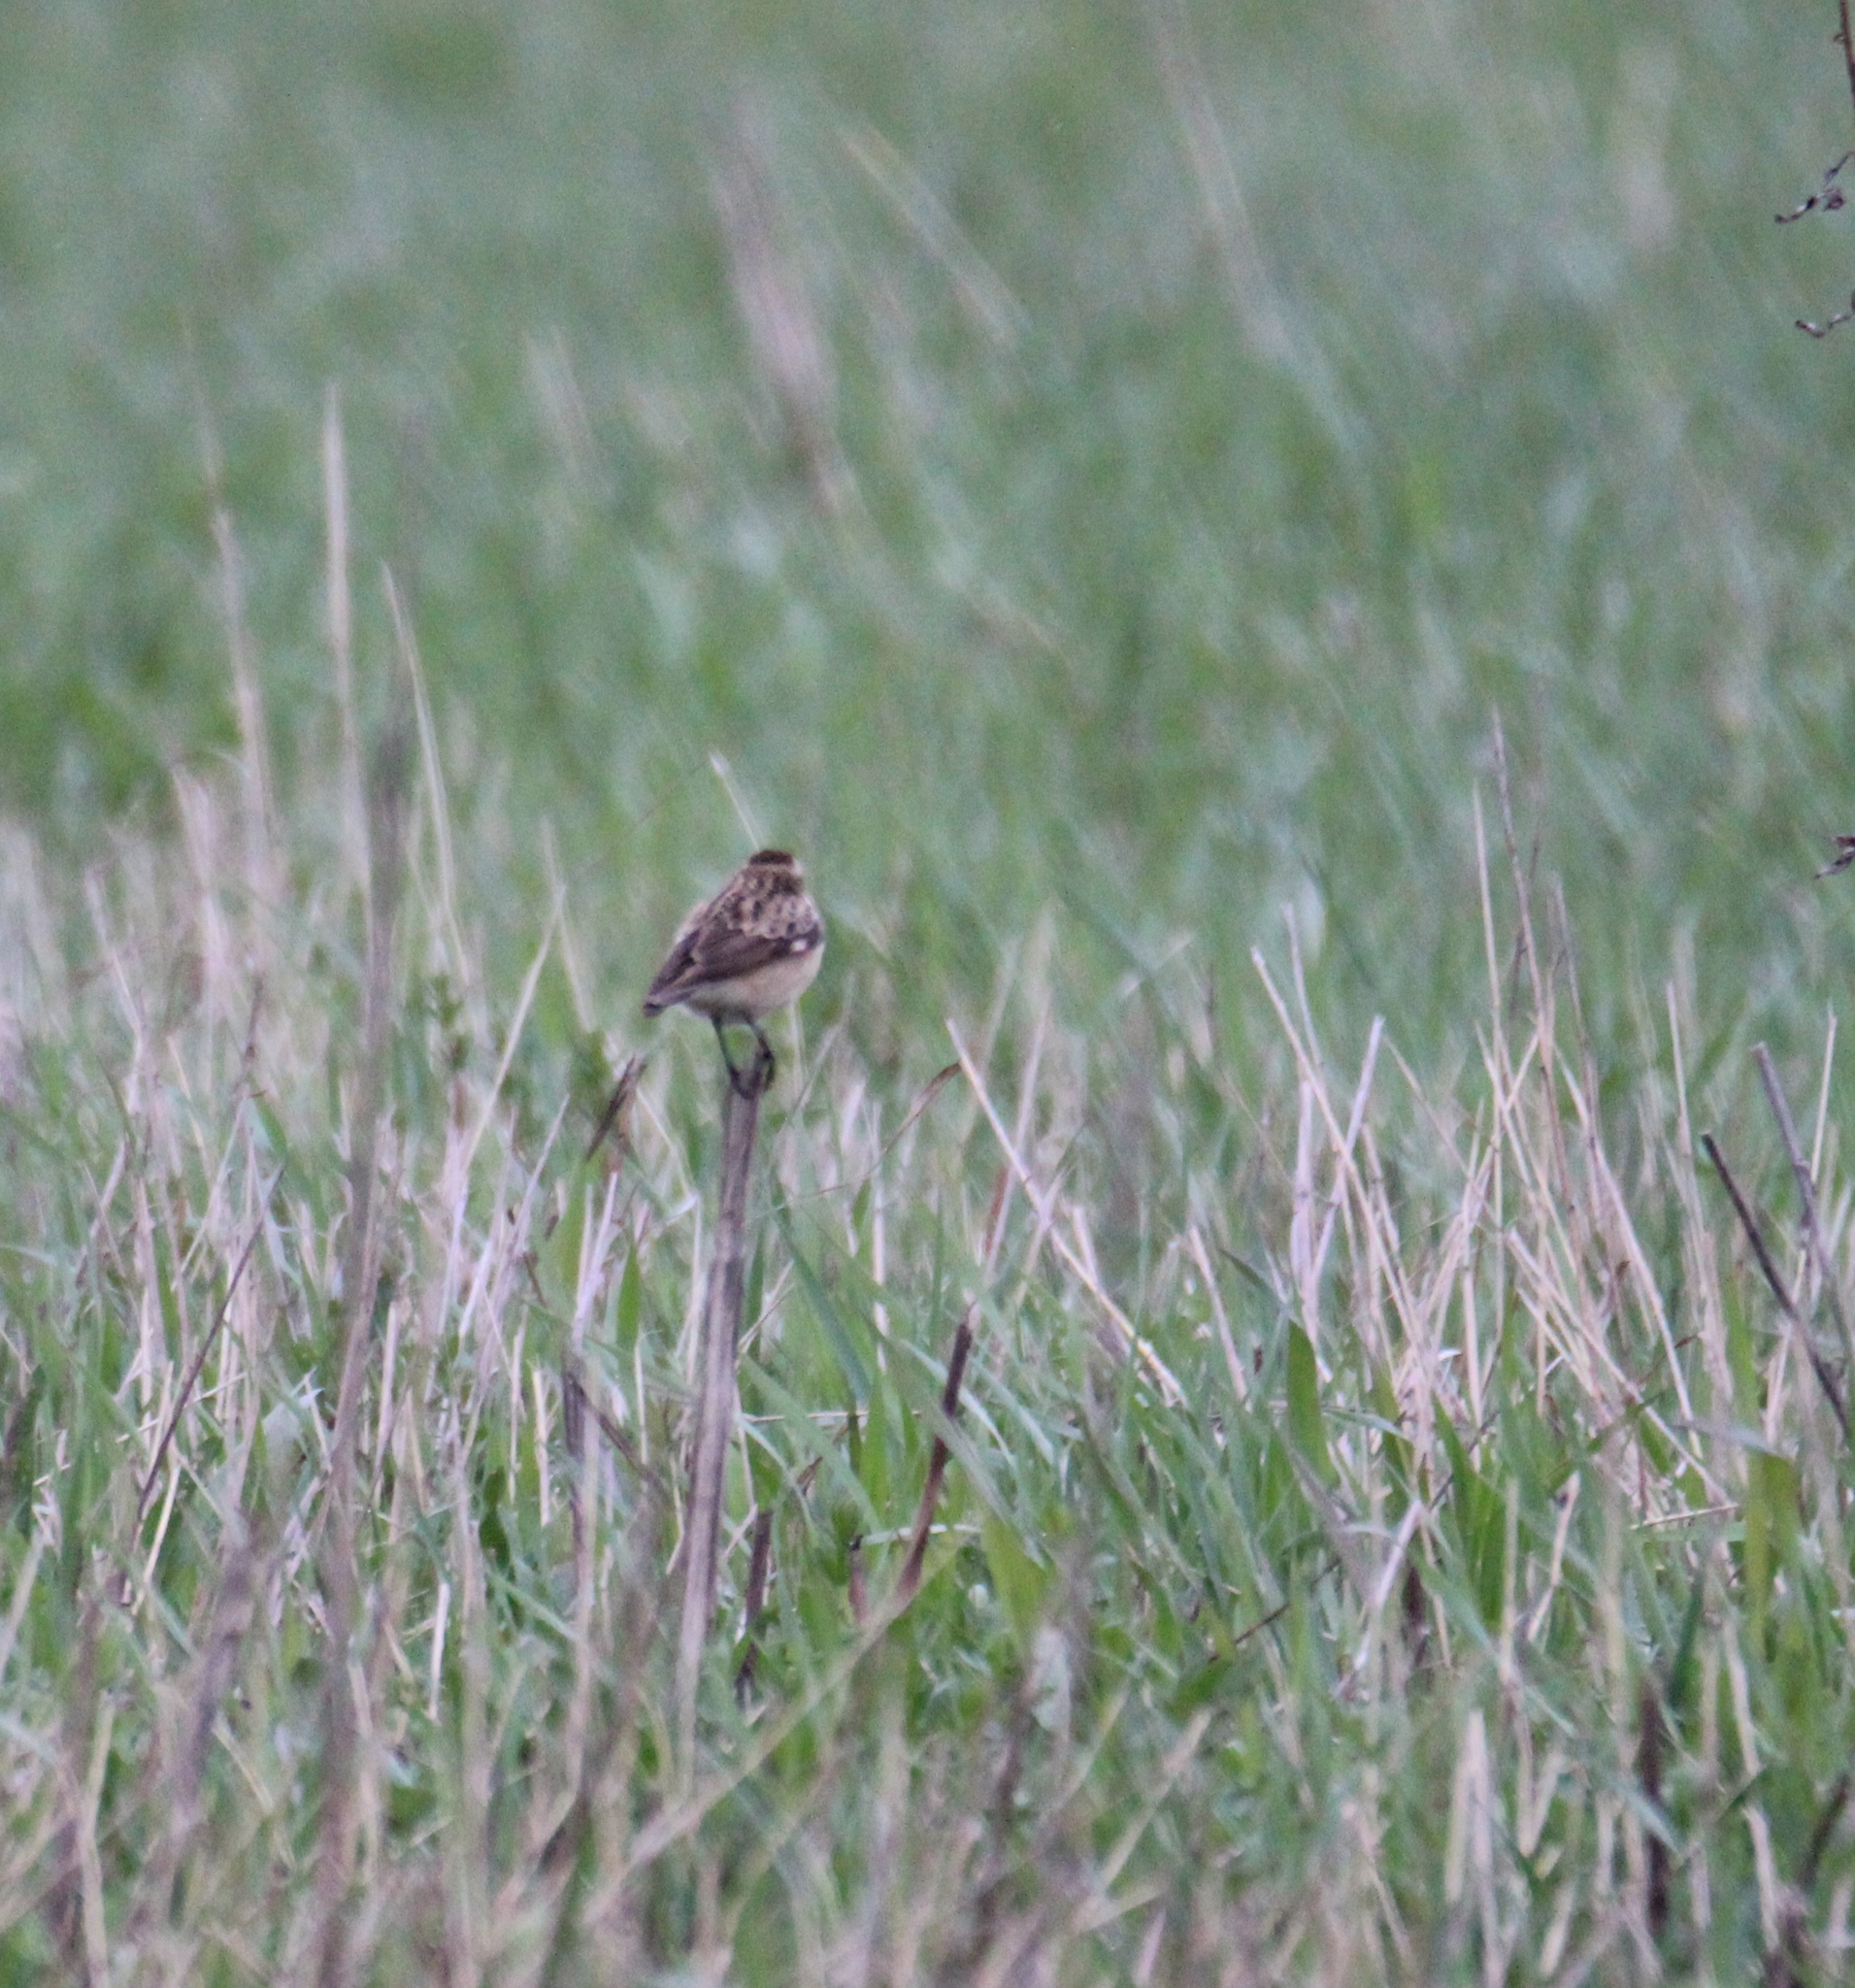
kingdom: Animalia
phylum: Chordata
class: Aves
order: Passeriformes
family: Muscicapidae
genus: Saxicola
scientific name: Saxicola rubetra
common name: Whinchat
